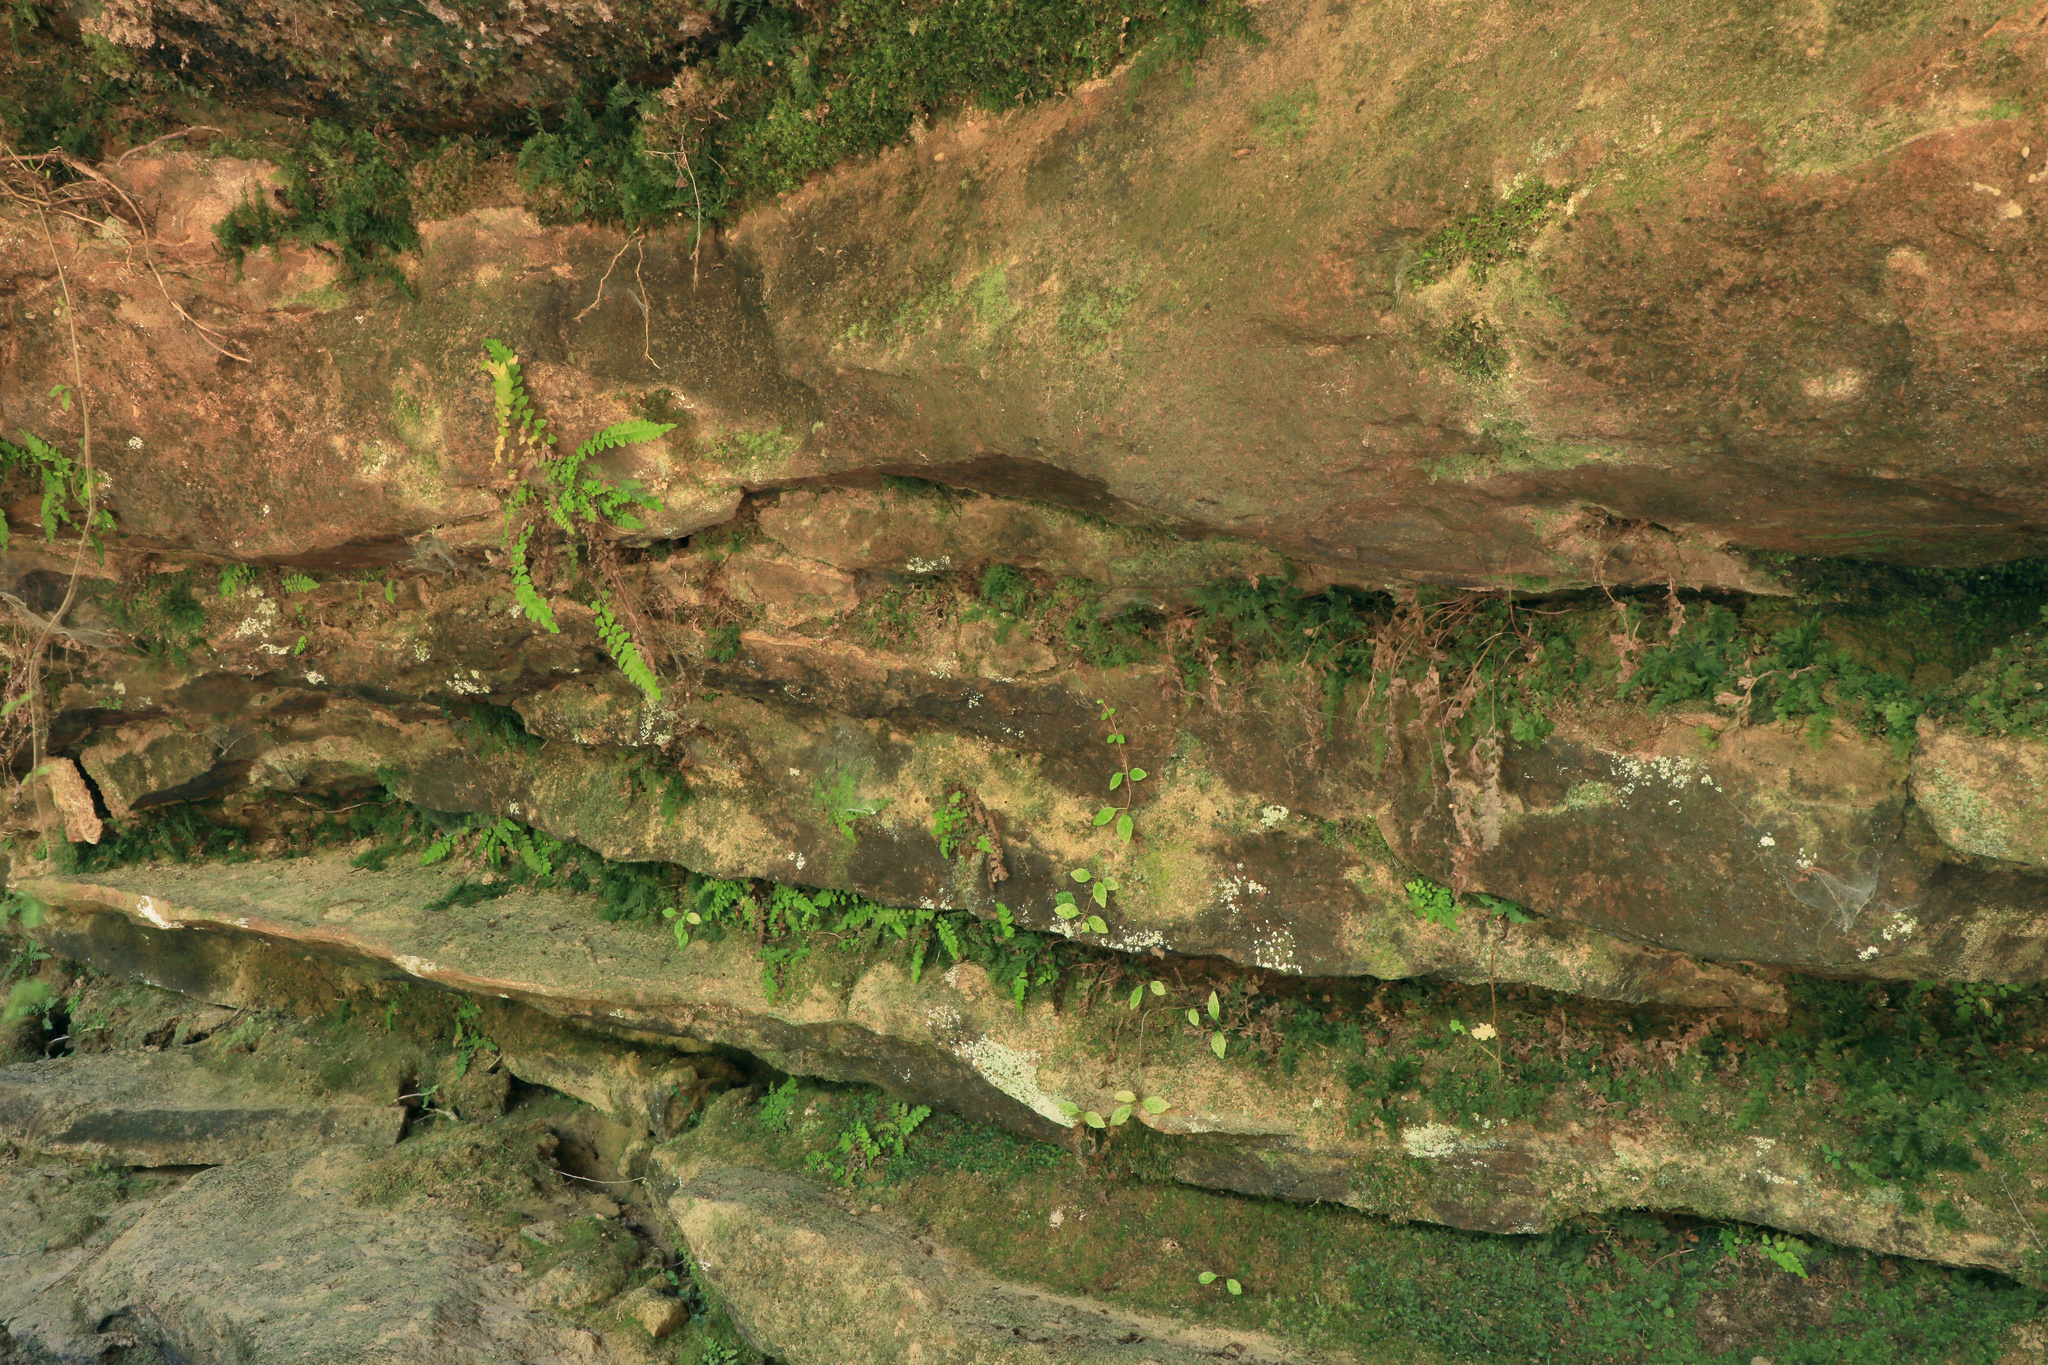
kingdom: Plantae
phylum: Tracheophyta
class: Polypodiopsida
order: Polypodiales
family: Thelypteridaceae
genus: Leptogramma
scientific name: Leptogramma burksiorum
